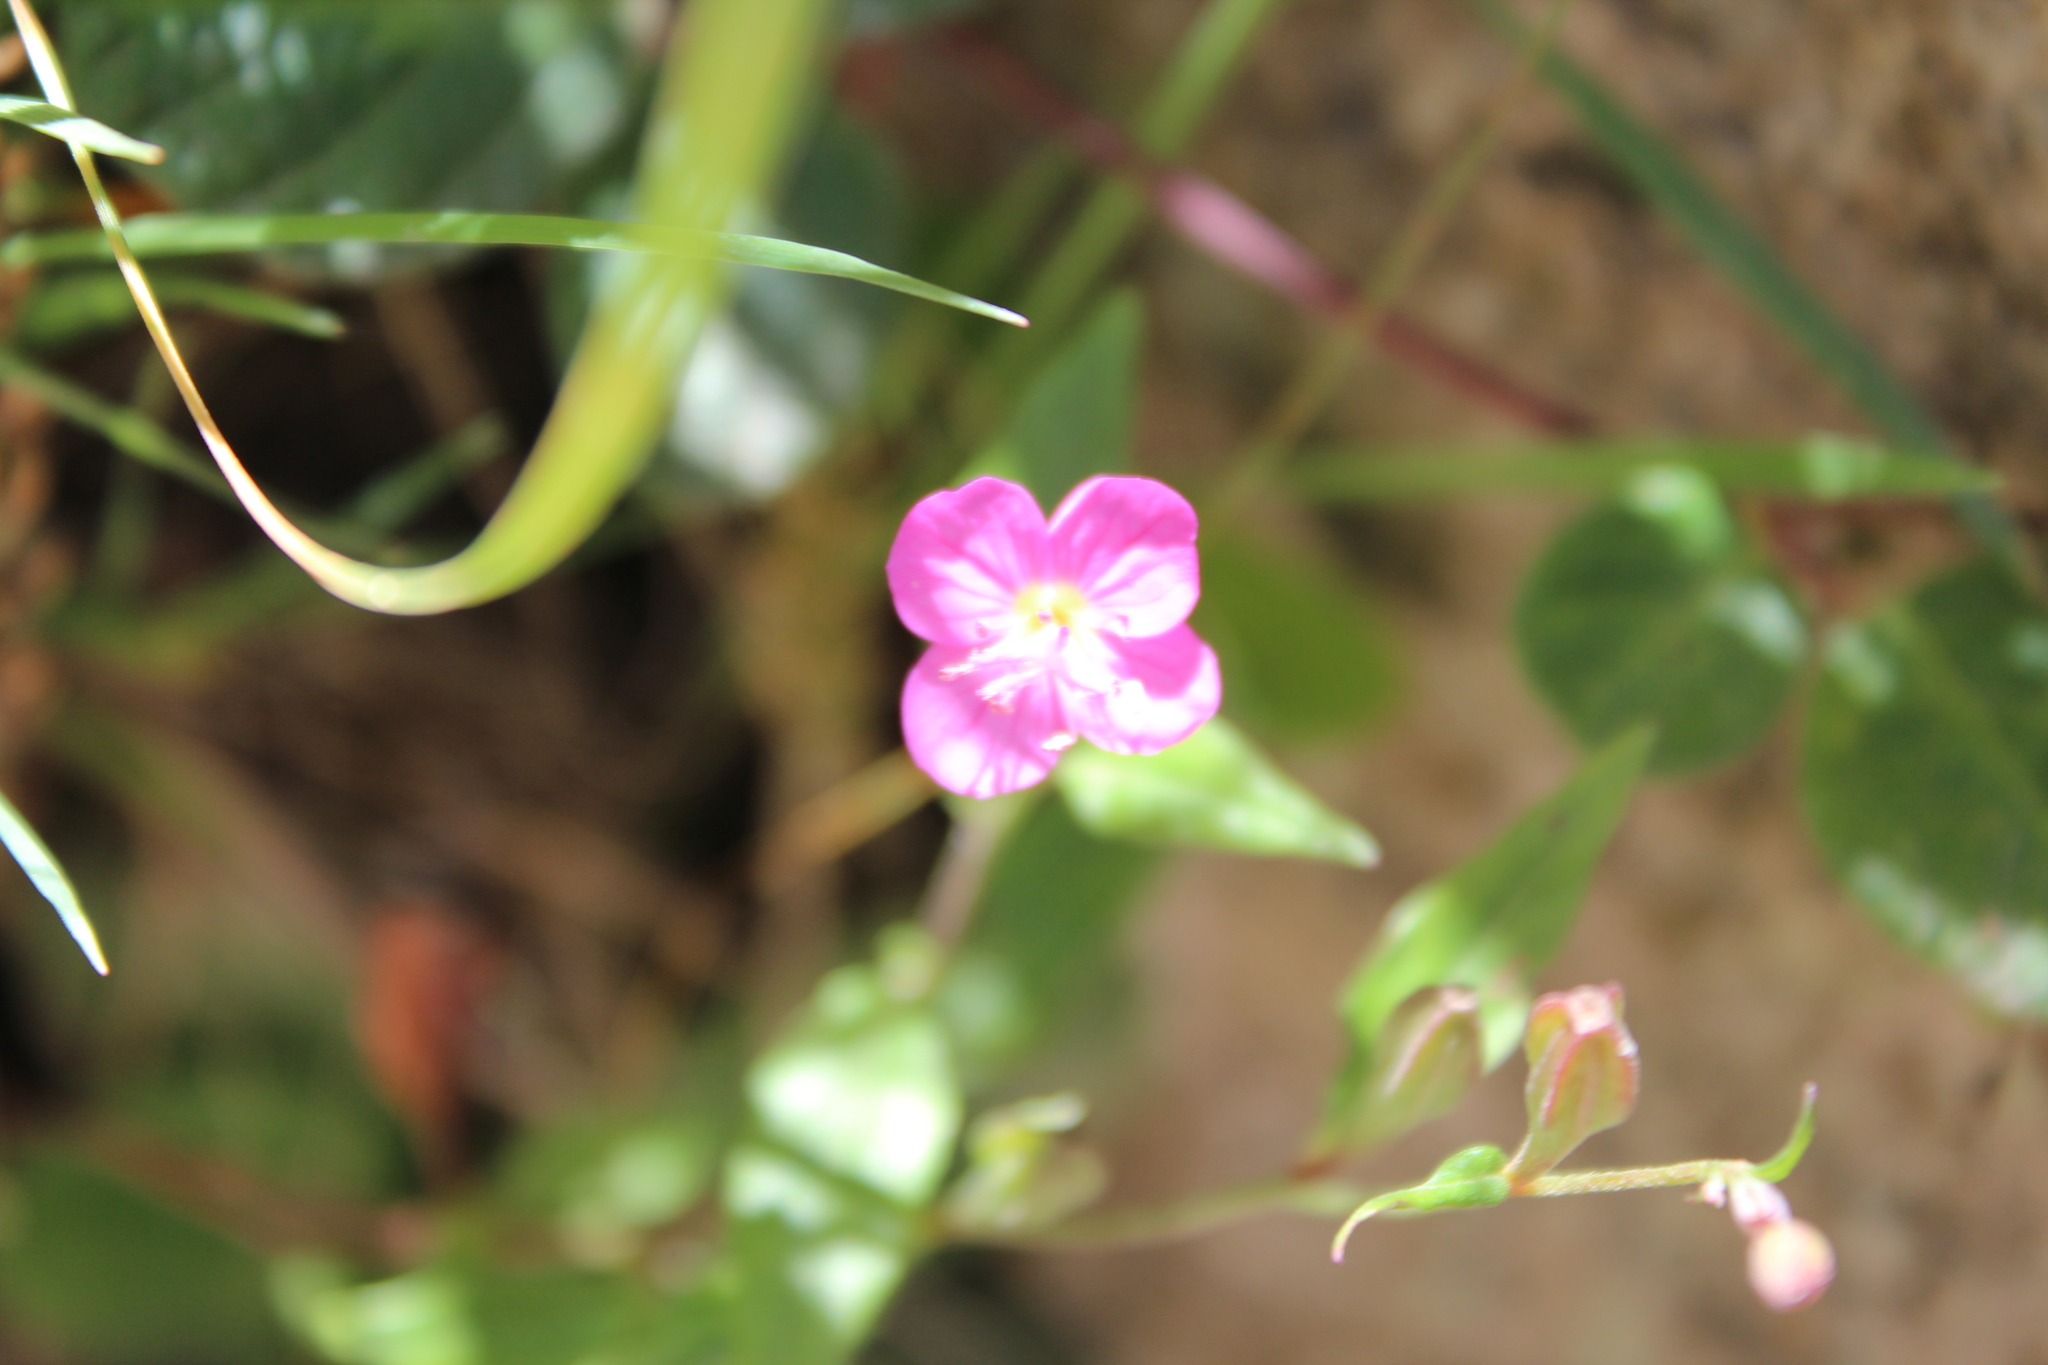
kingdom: Plantae
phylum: Tracheophyta
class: Magnoliopsida
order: Myrtales
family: Onagraceae
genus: Oenothera
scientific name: Oenothera rosea
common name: Rosy evening-primrose
